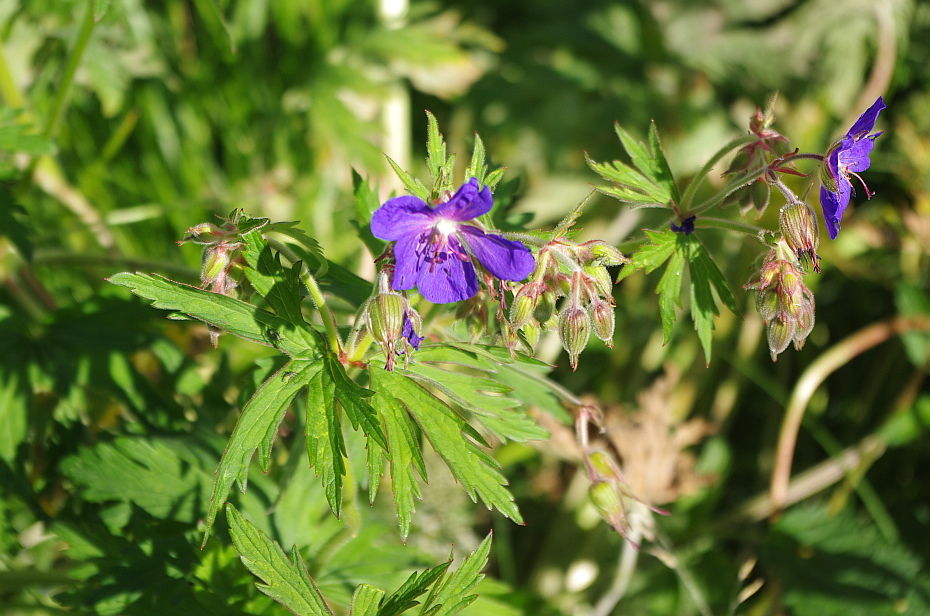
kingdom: Plantae
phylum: Tracheophyta
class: Magnoliopsida
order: Geraniales
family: Geraniaceae
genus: Geranium
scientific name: Geranium pratense
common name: Meadow crane's-bill
